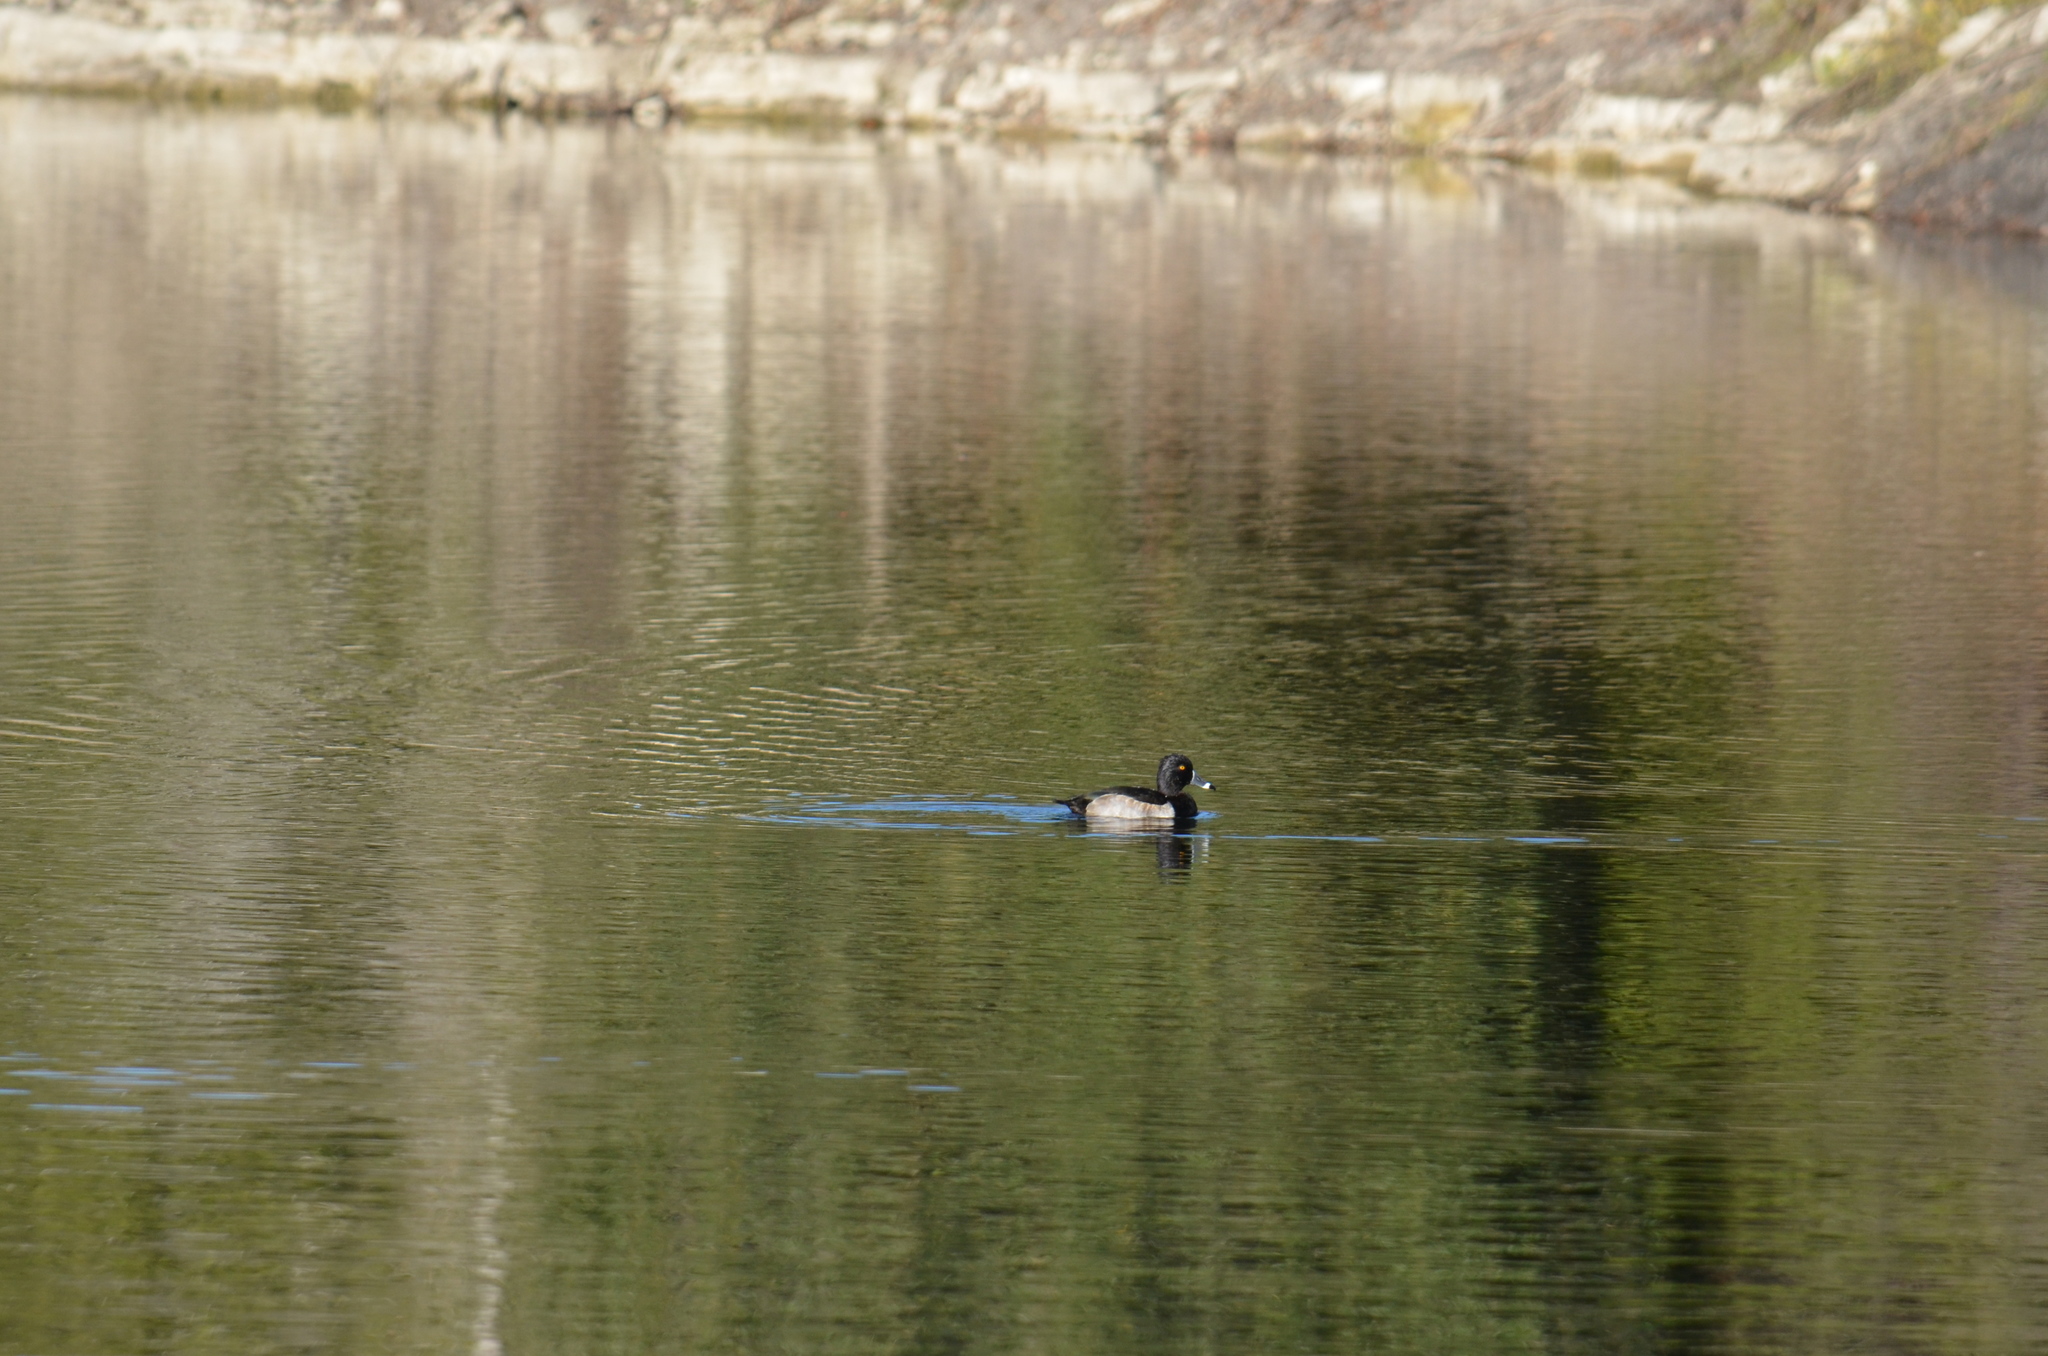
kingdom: Animalia
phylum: Chordata
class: Aves
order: Anseriformes
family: Anatidae
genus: Aythya
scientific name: Aythya collaris
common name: Ring-necked duck
